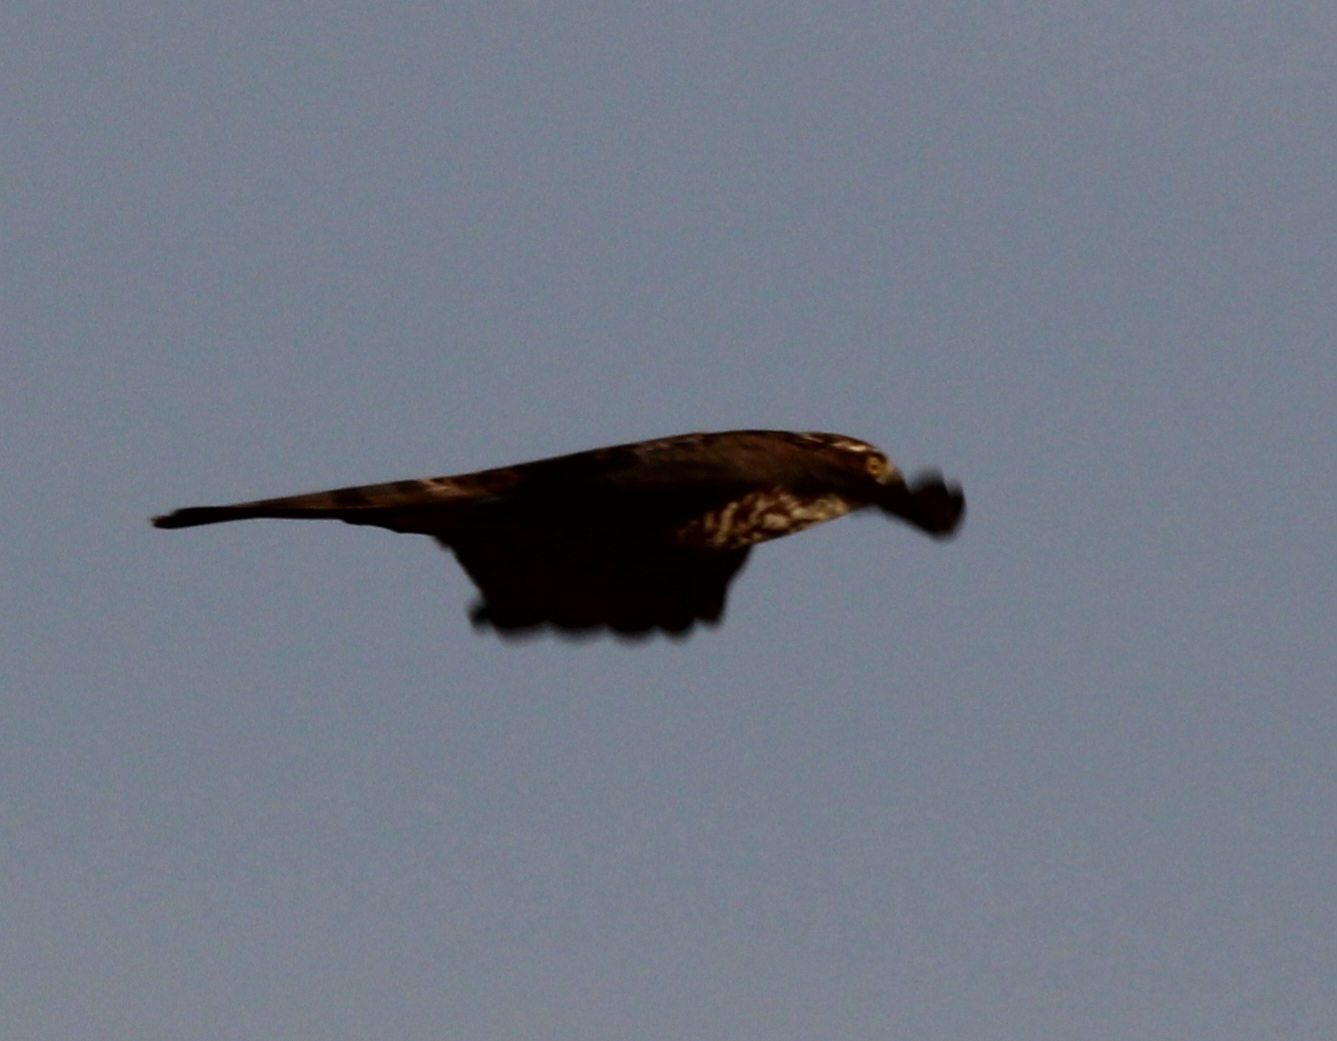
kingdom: Animalia
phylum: Chordata
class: Aves
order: Accipitriformes
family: Accipitridae
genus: Accipiter
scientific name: Accipiter nisus
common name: Eurasian sparrowhawk
